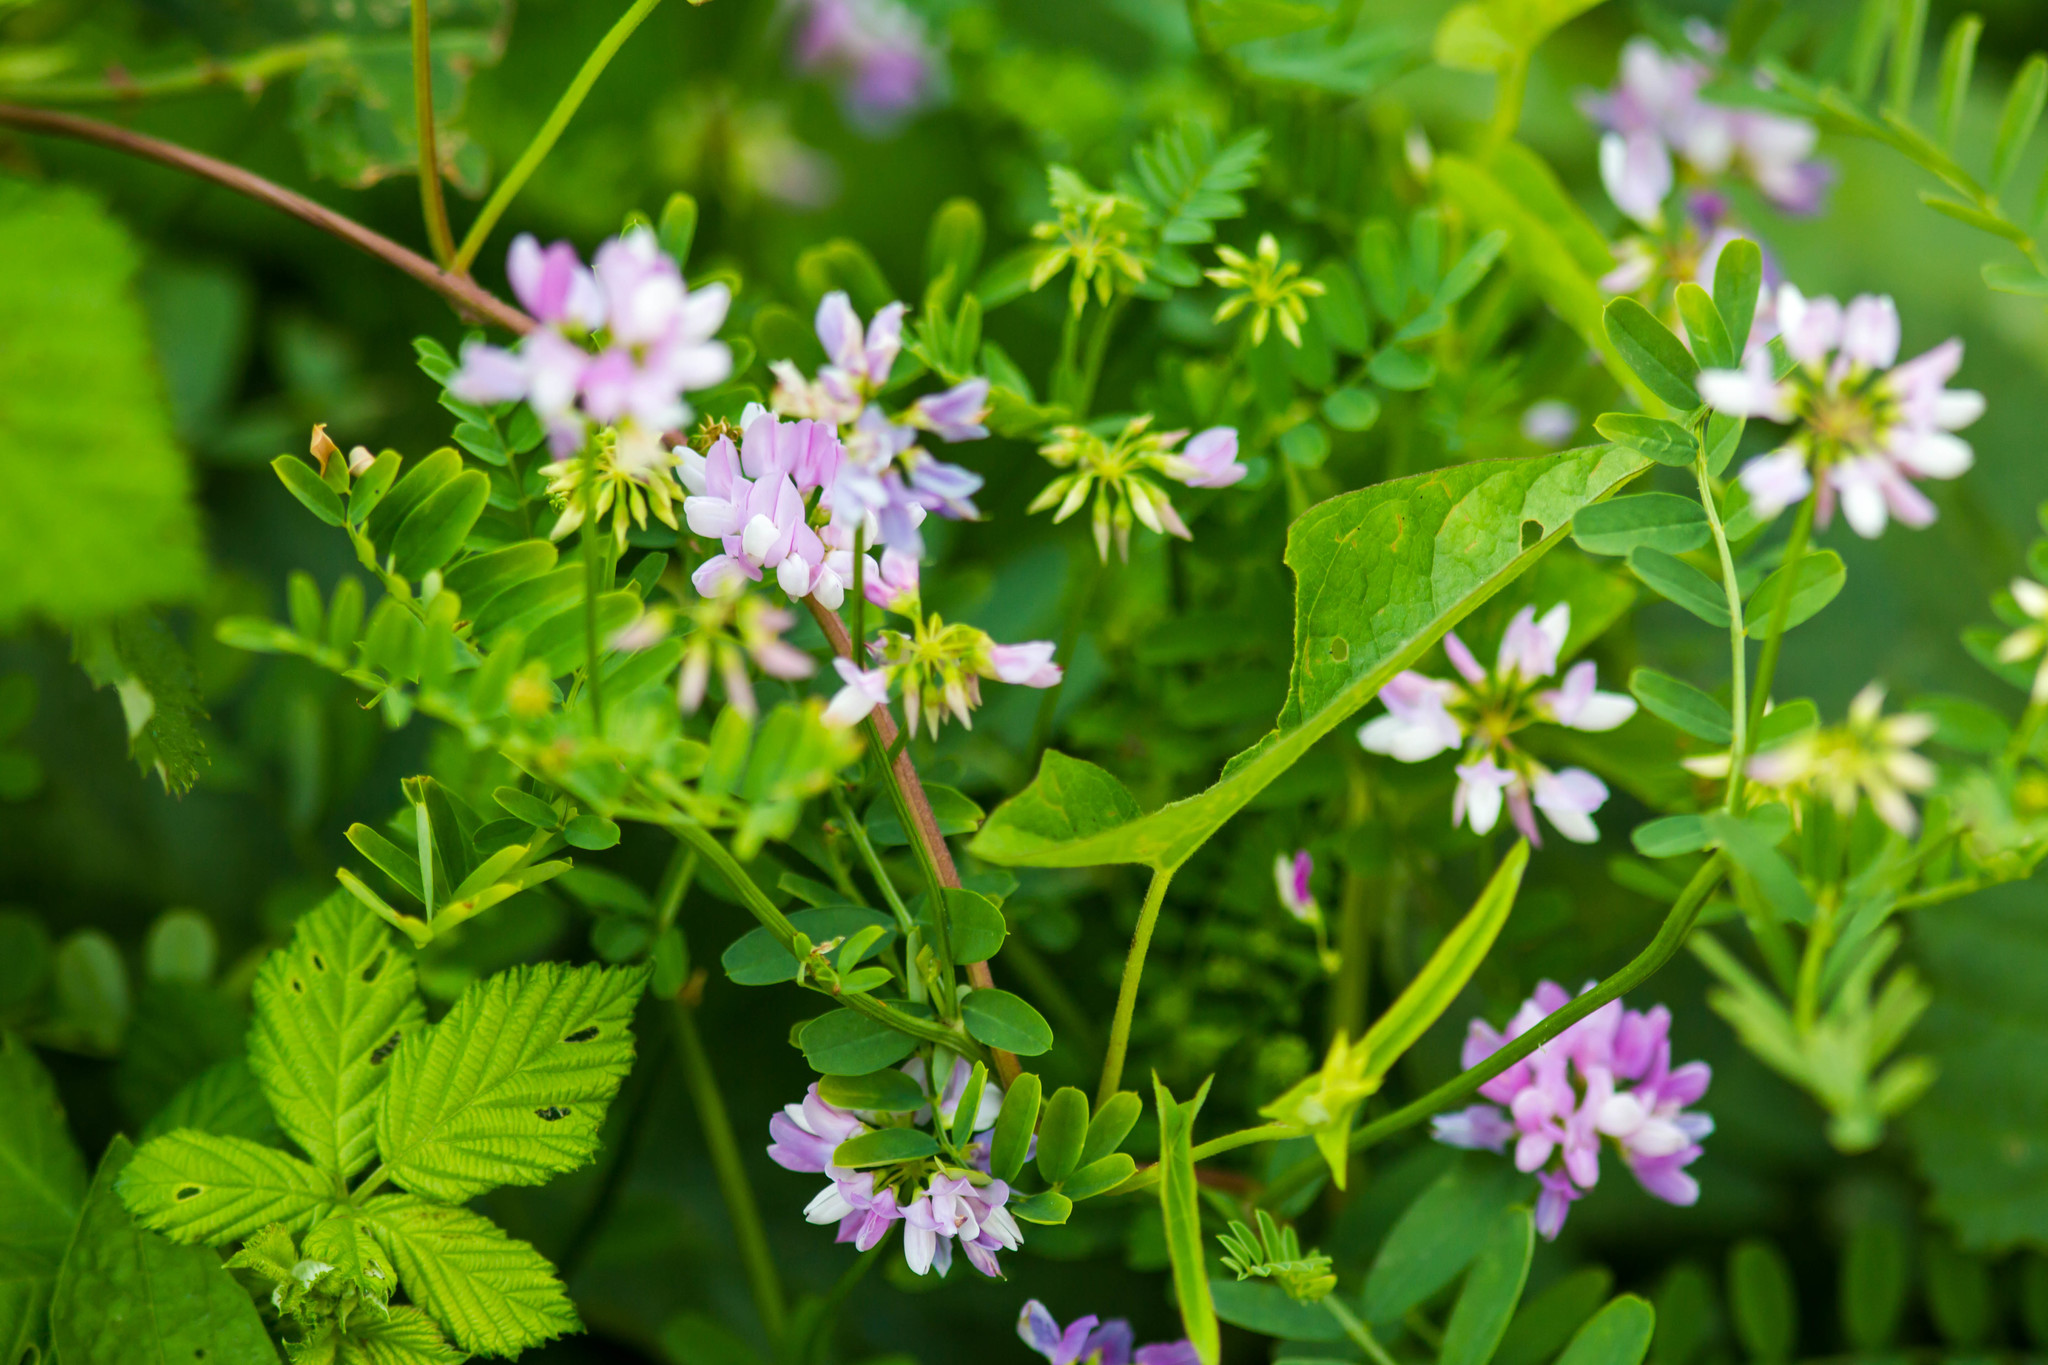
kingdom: Plantae
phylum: Tracheophyta
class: Magnoliopsida
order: Fabales
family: Fabaceae
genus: Coronilla
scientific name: Coronilla varia
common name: Crownvetch
